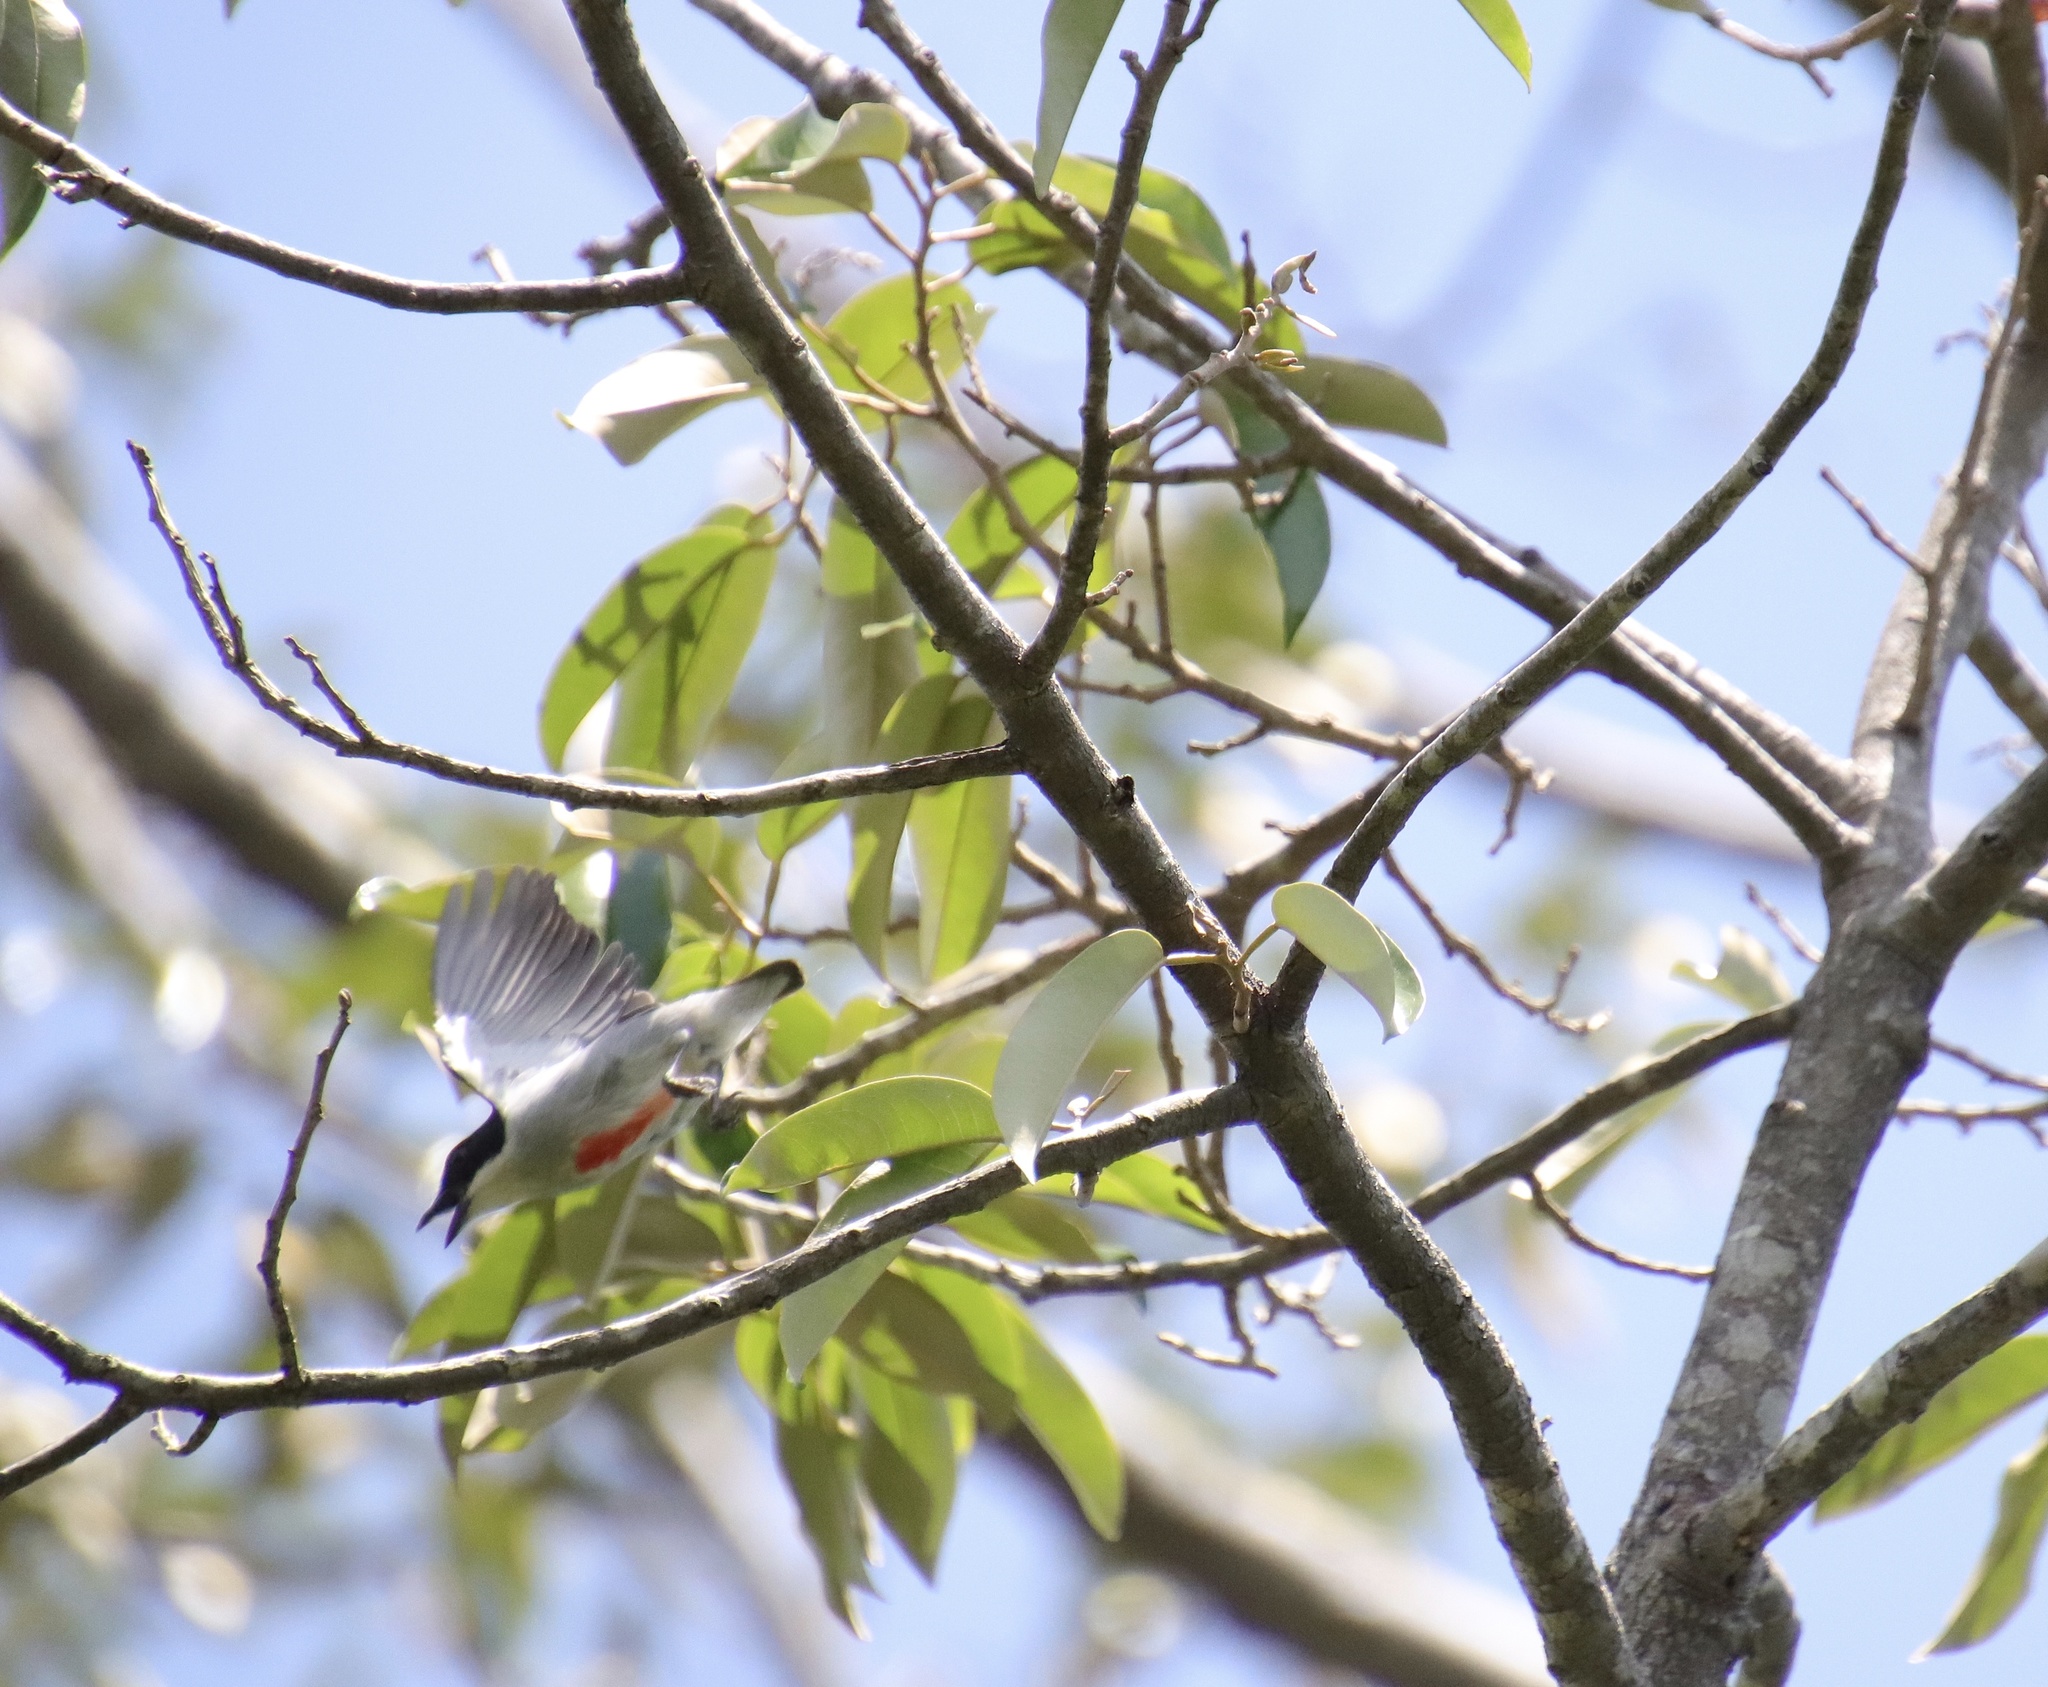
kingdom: Animalia
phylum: Chordata
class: Aves
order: Passeriformes
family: Dicaeidae
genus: Dicaeum
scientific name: Dicaeum australe
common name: Red-keeled flowerpecker
